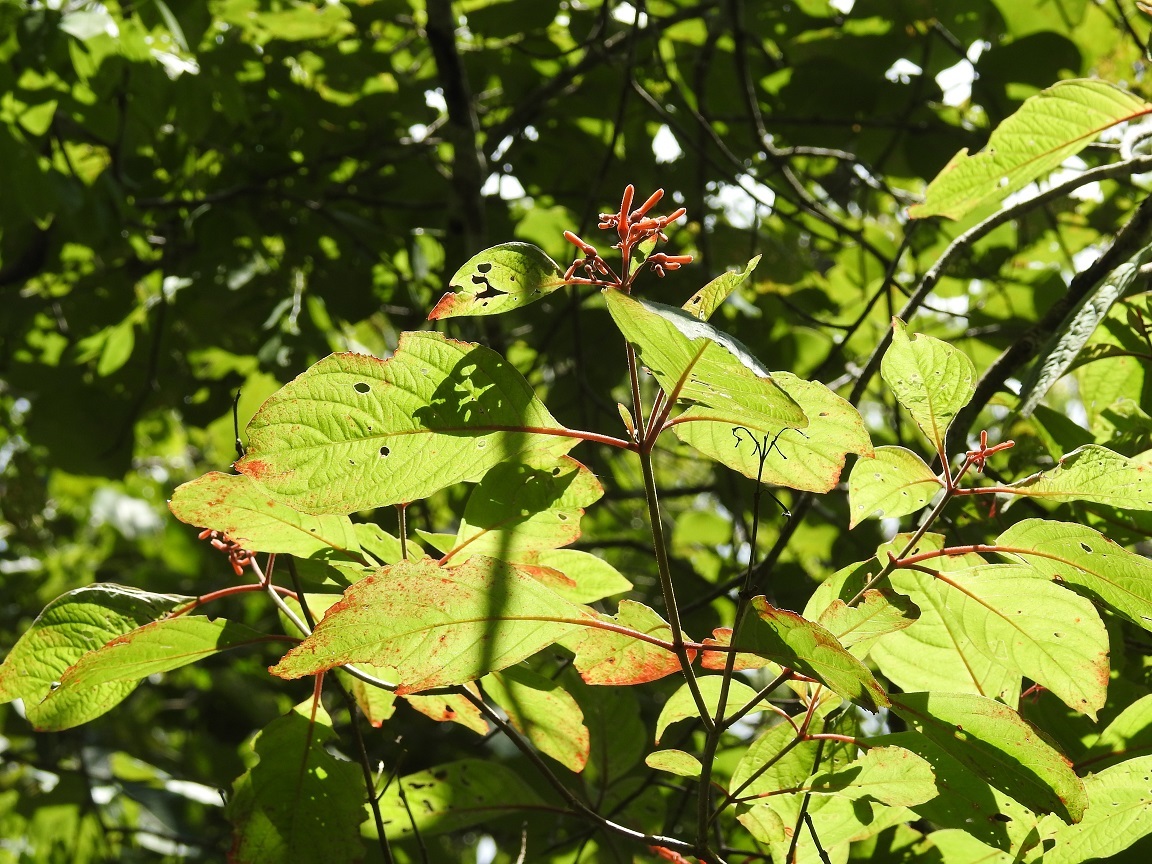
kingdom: Plantae
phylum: Tracheophyta
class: Magnoliopsida
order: Gentianales
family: Rubiaceae
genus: Hamelia
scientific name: Hamelia patens
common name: Redhead
